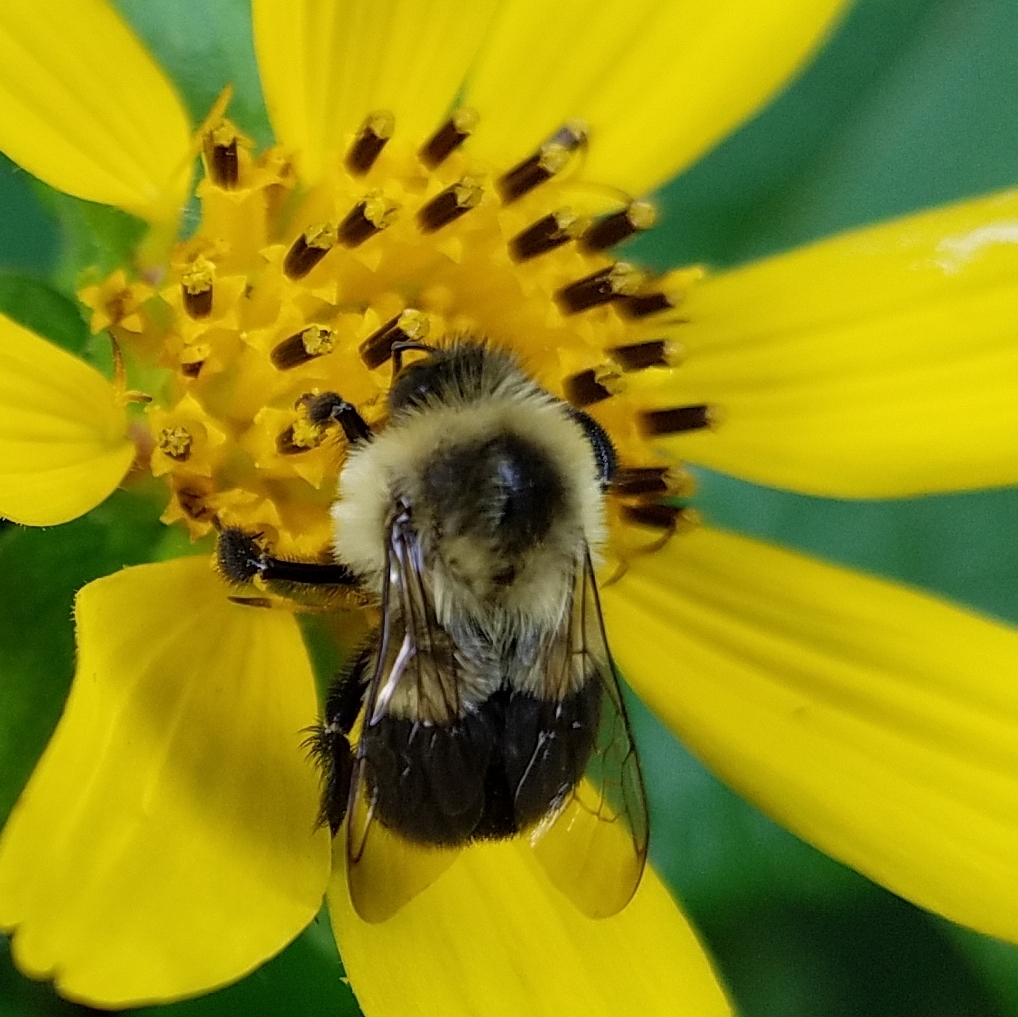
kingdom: Animalia
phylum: Arthropoda
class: Insecta
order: Hymenoptera
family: Apidae
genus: Bombus
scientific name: Bombus impatiens
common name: Common eastern bumble bee
